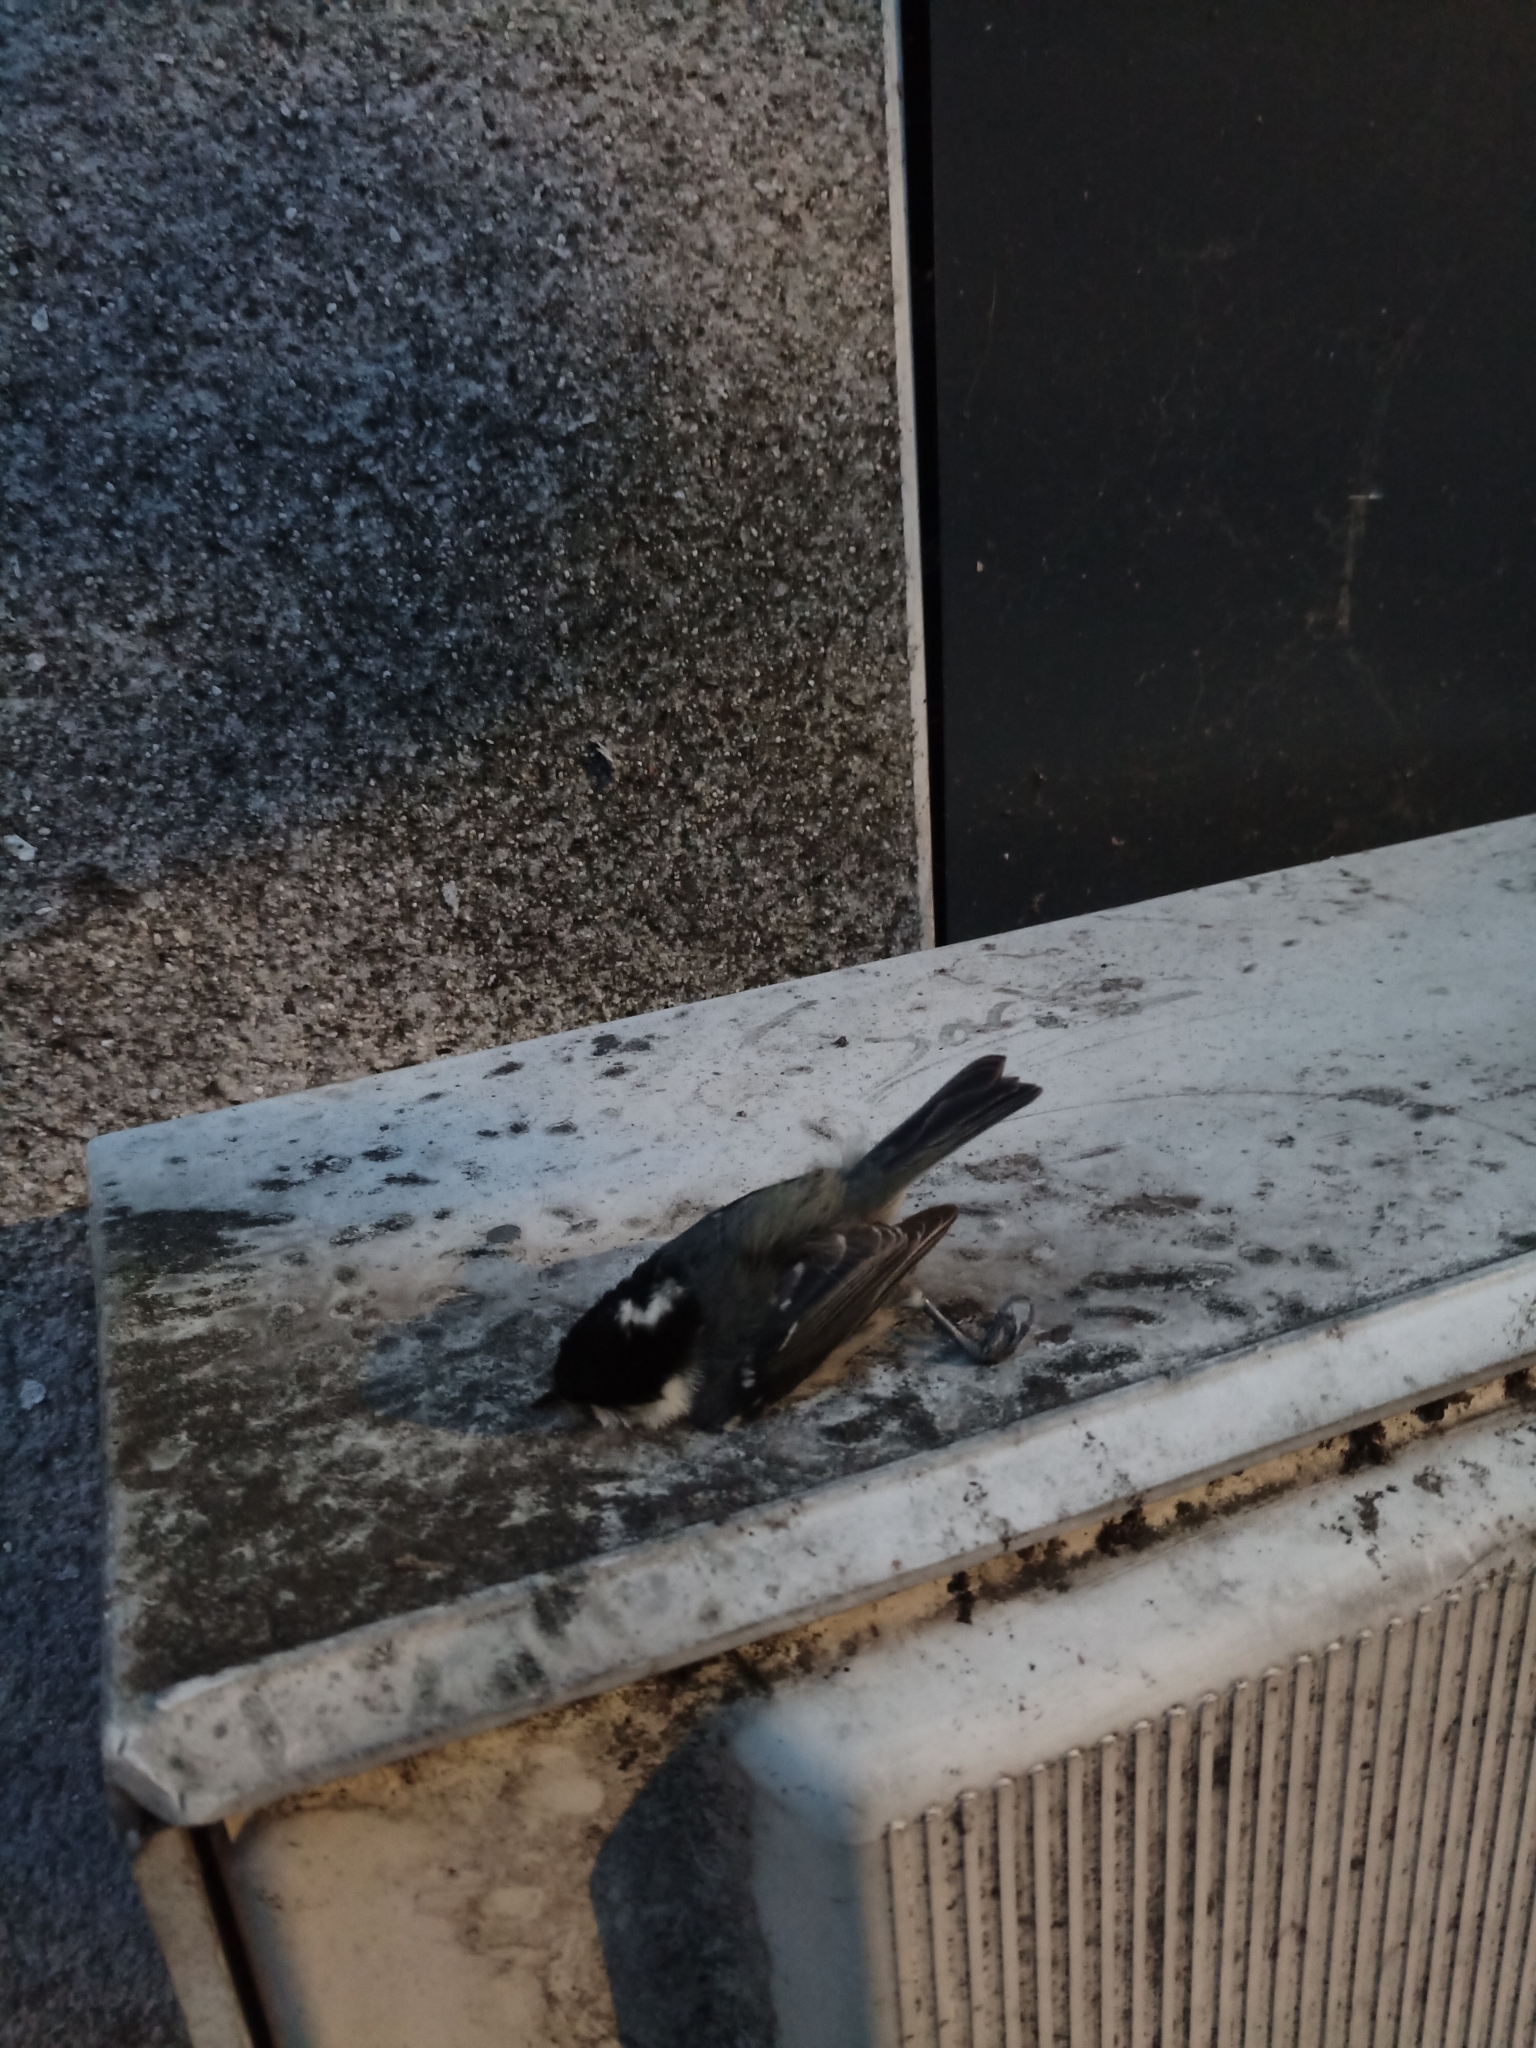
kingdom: Animalia
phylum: Chordata
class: Aves
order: Passeriformes
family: Paridae
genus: Periparus
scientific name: Periparus ater
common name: Coal tit
